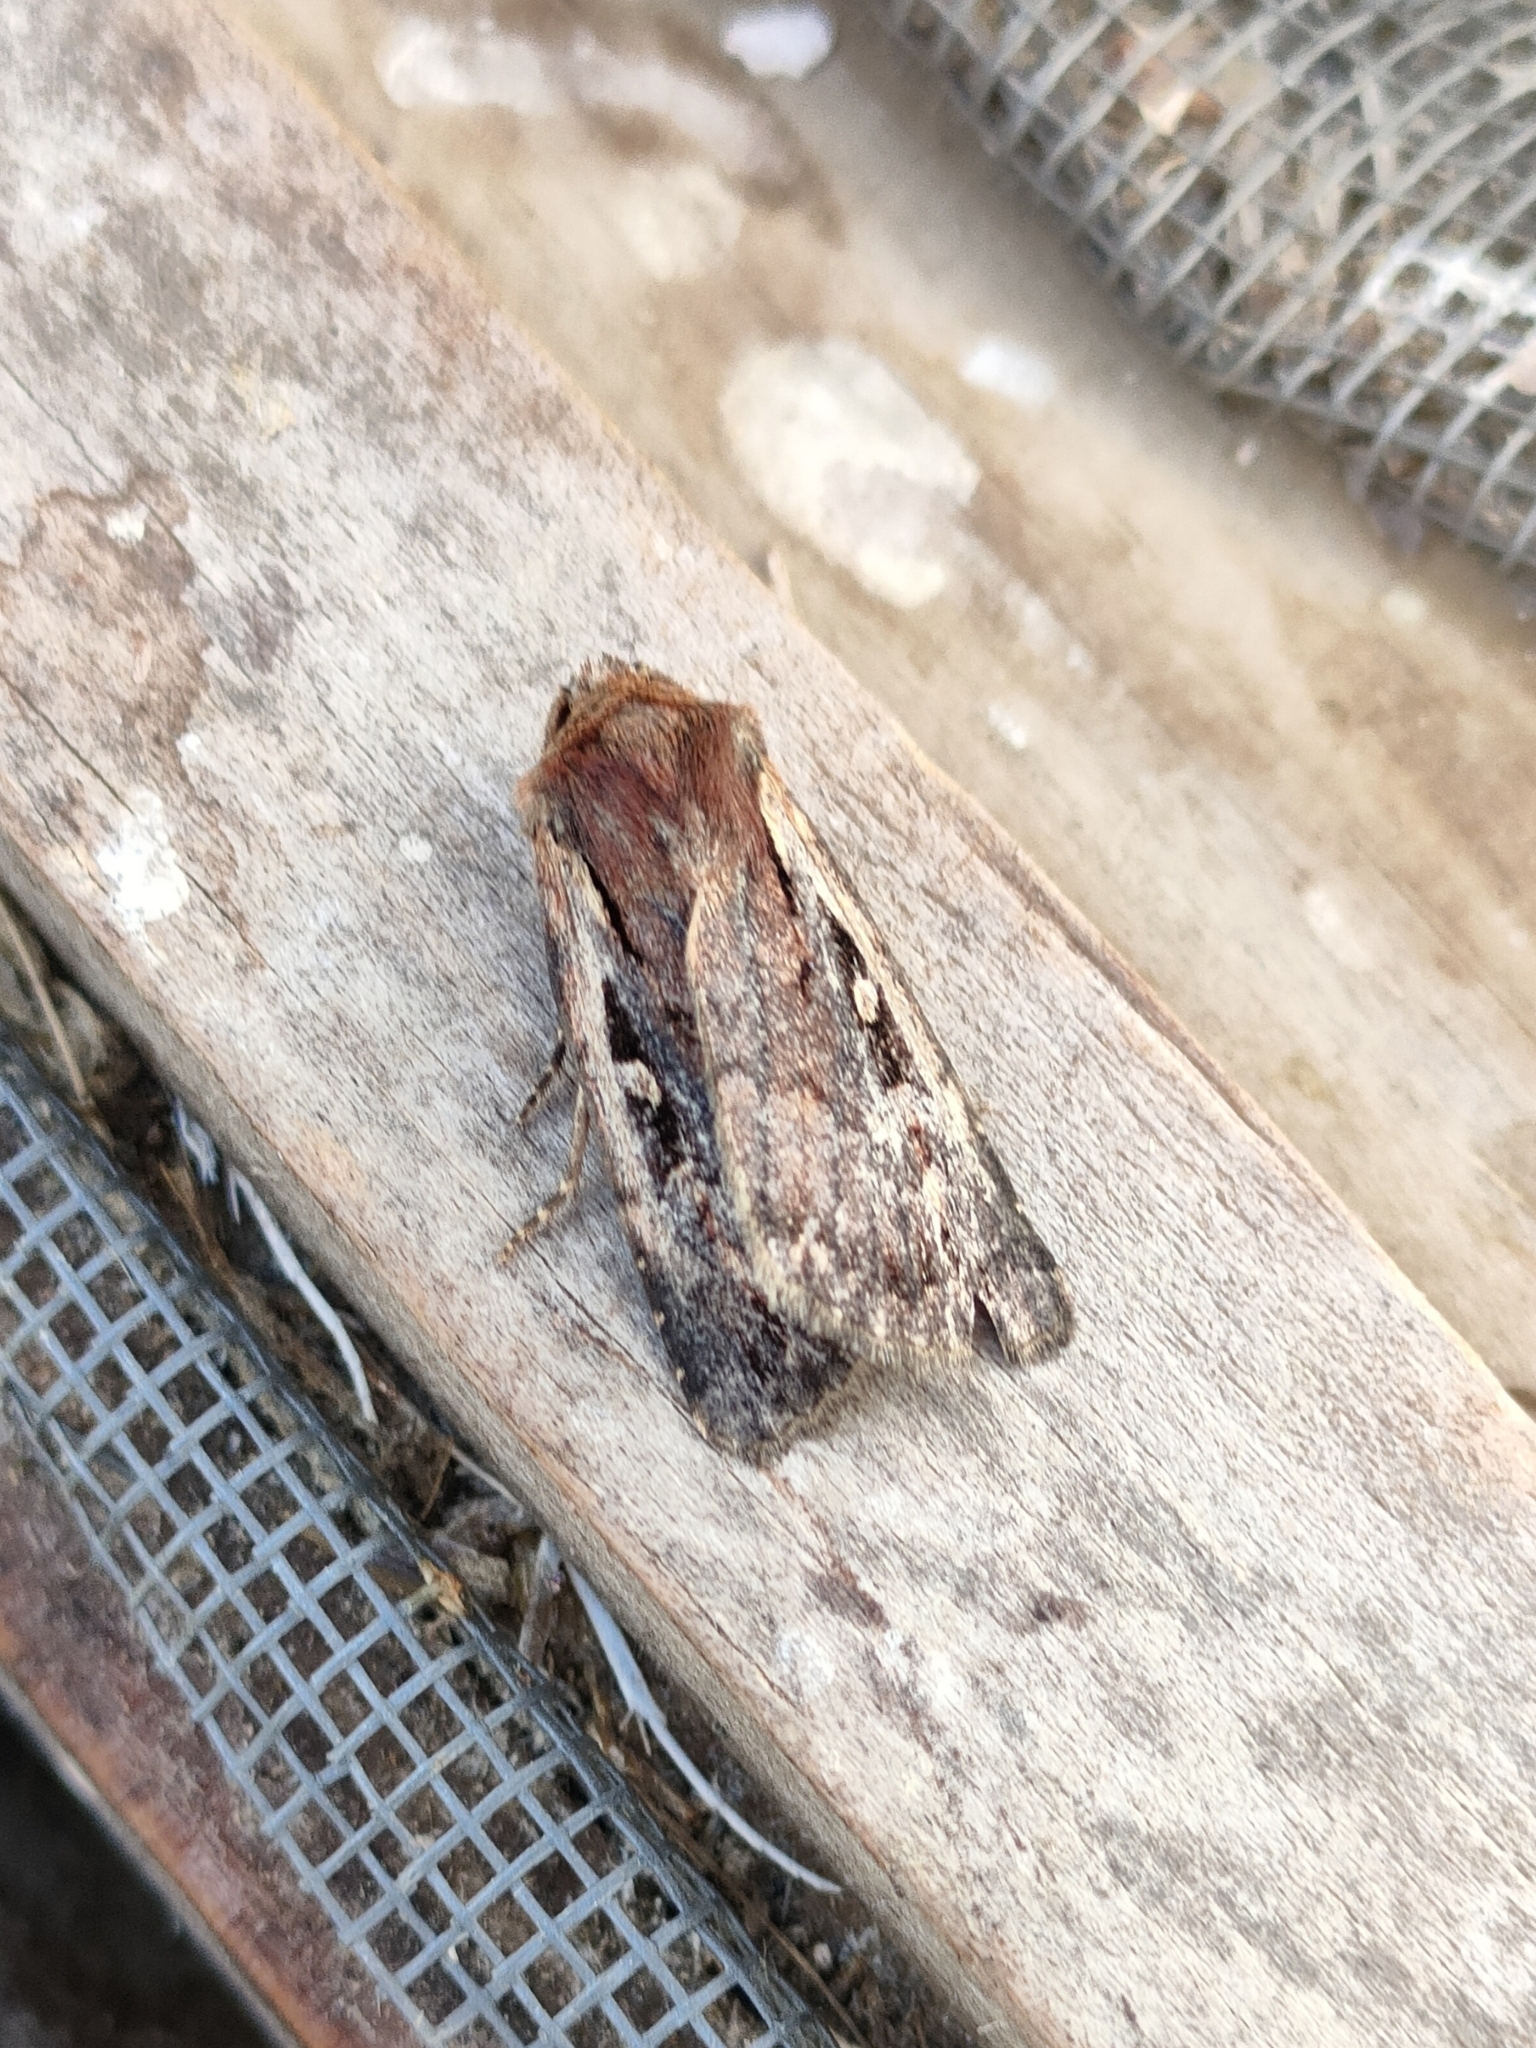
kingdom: Animalia
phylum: Arthropoda
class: Insecta
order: Lepidoptera
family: Noctuidae
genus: Xestia
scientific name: Xestia agathina
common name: Heath rustic
